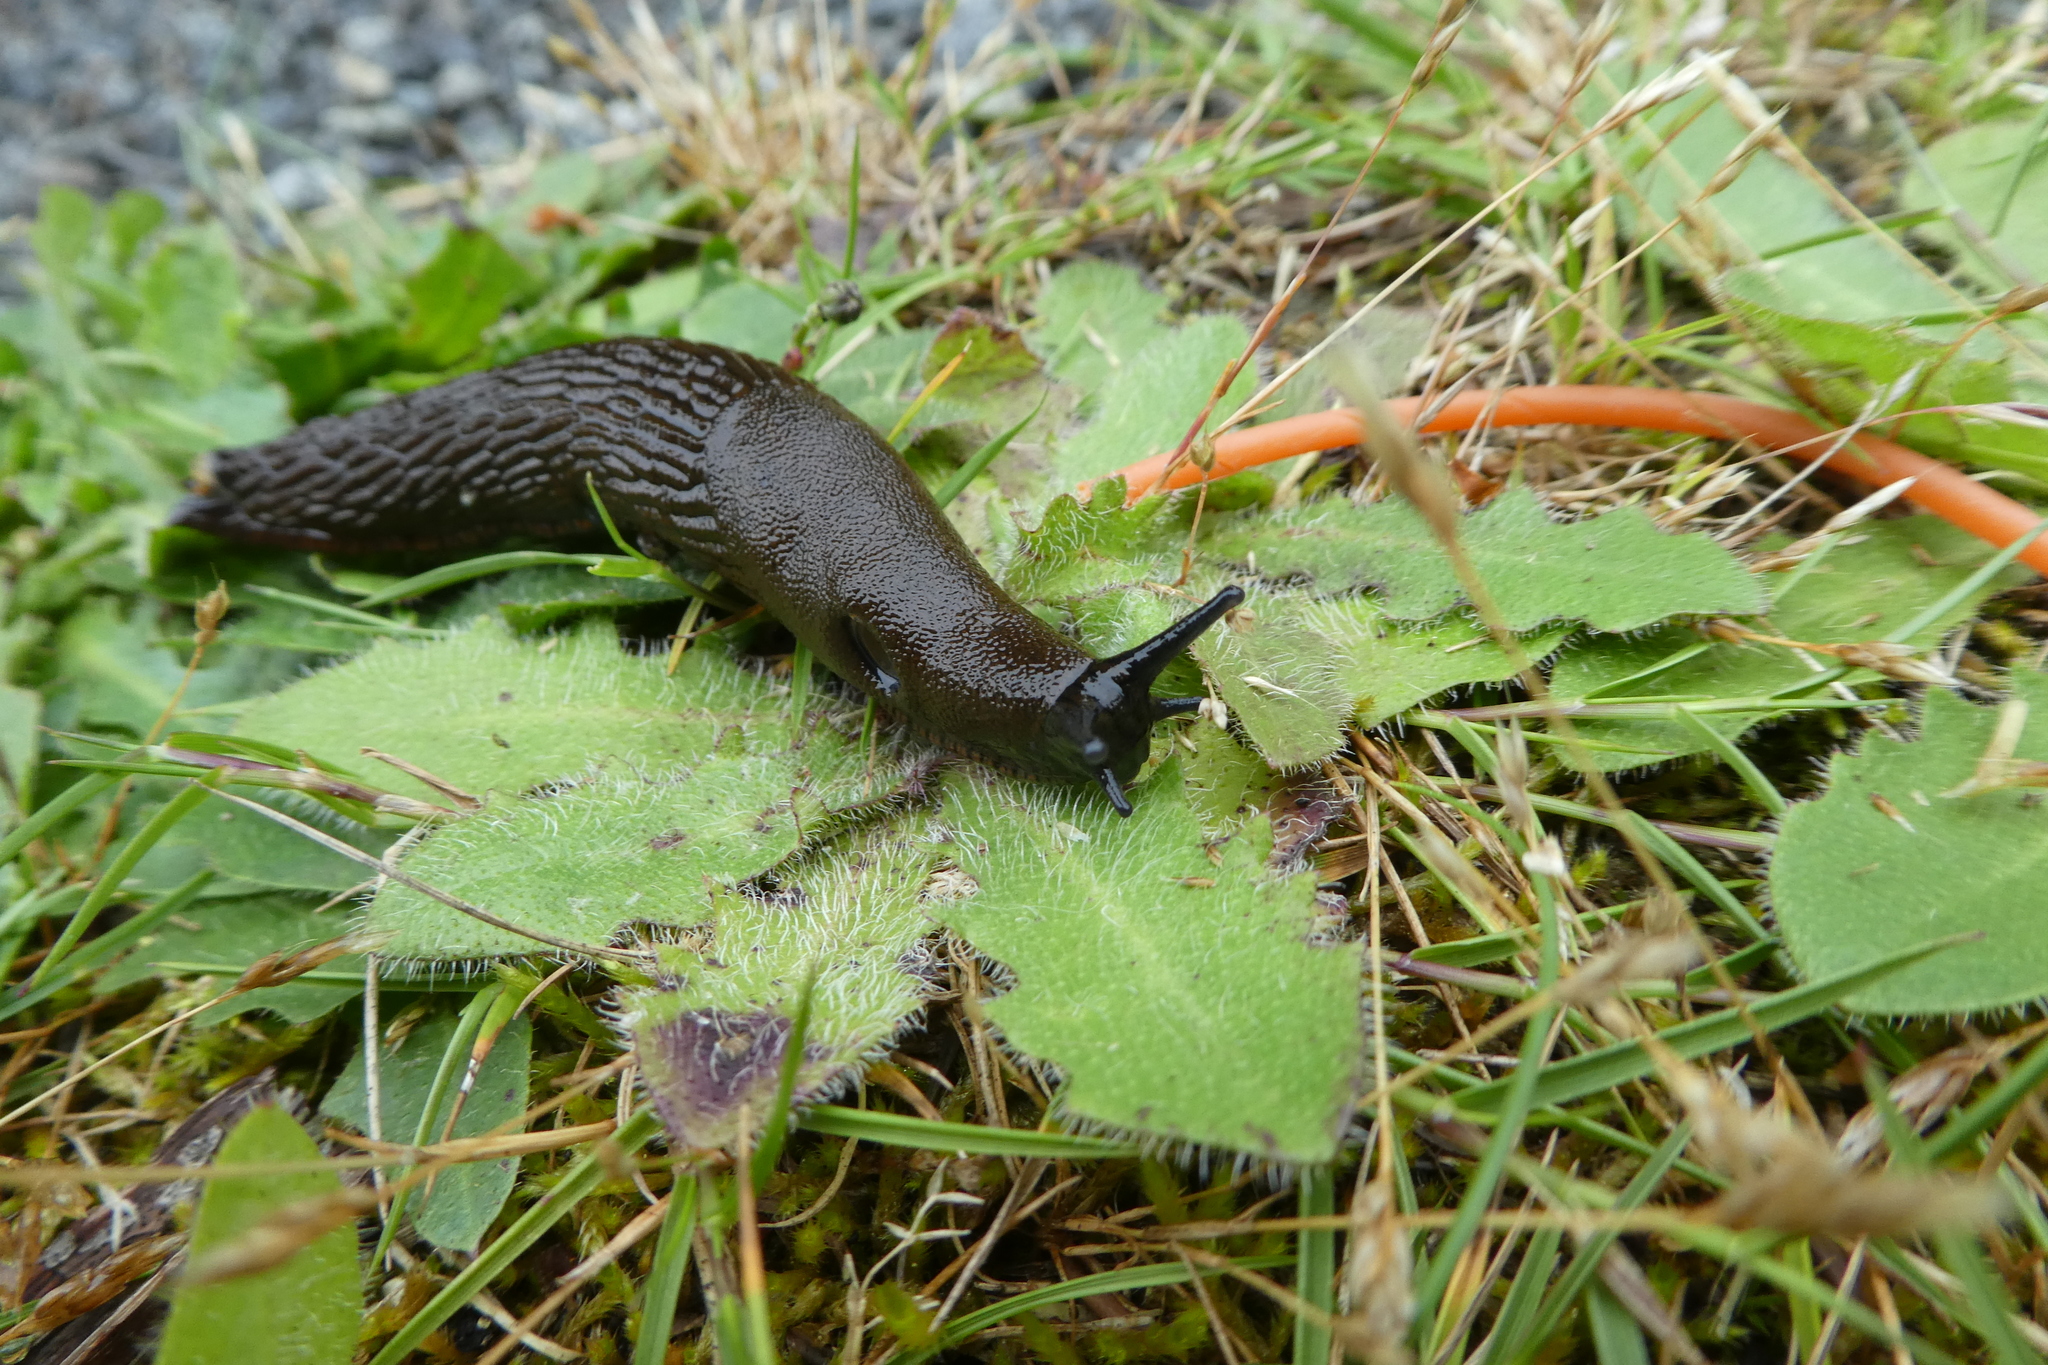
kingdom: Animalia
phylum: Mollusca
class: Gastropoda
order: Stylommatophora
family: Arionidae
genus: Arion
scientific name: Arion
